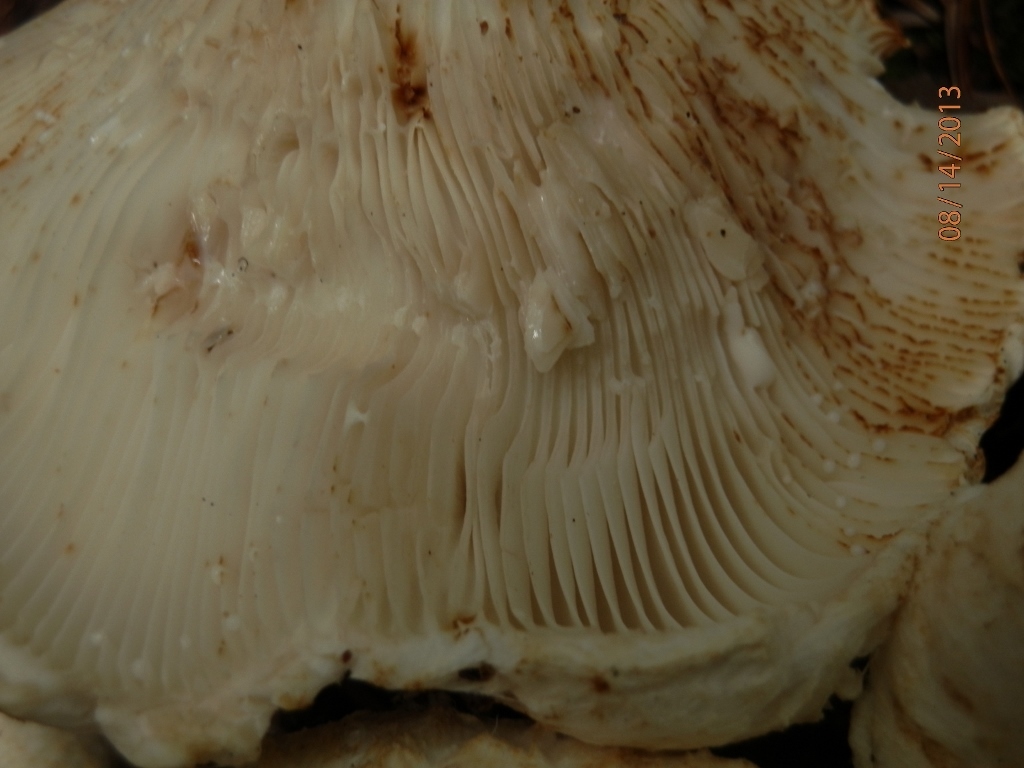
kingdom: Fungi
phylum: Basidiomycota
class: Agaricomycetes
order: Russulales
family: Russulaceae
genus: Lactifluus
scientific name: Lactifluus
